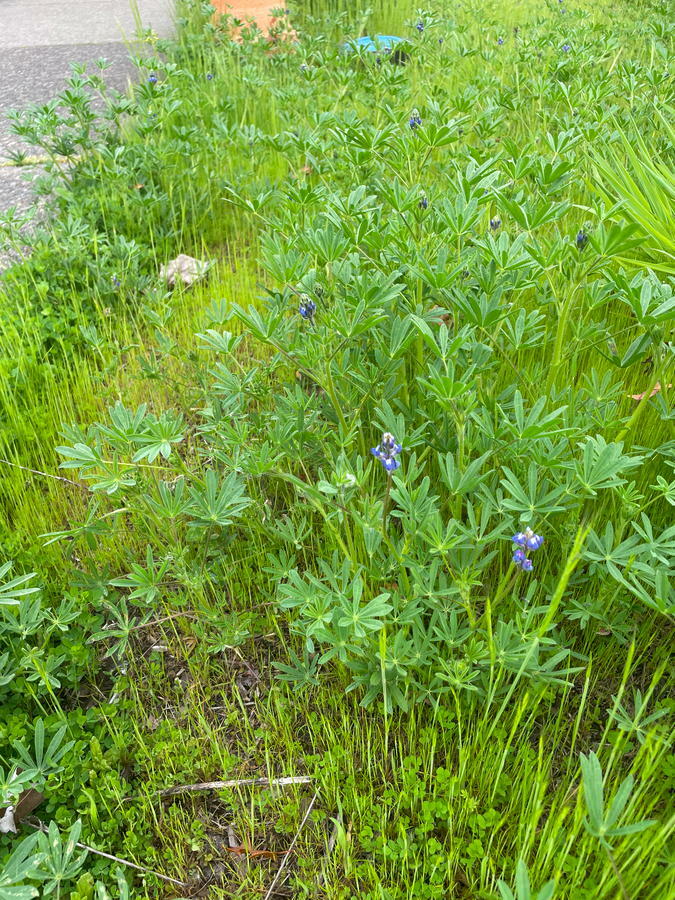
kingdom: Plantae
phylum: Tracheophyta
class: Magnoliopsida
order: Fabales
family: Fabaceae
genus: Lupinus
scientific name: Lupinus bicolor
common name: Miniature lupine
